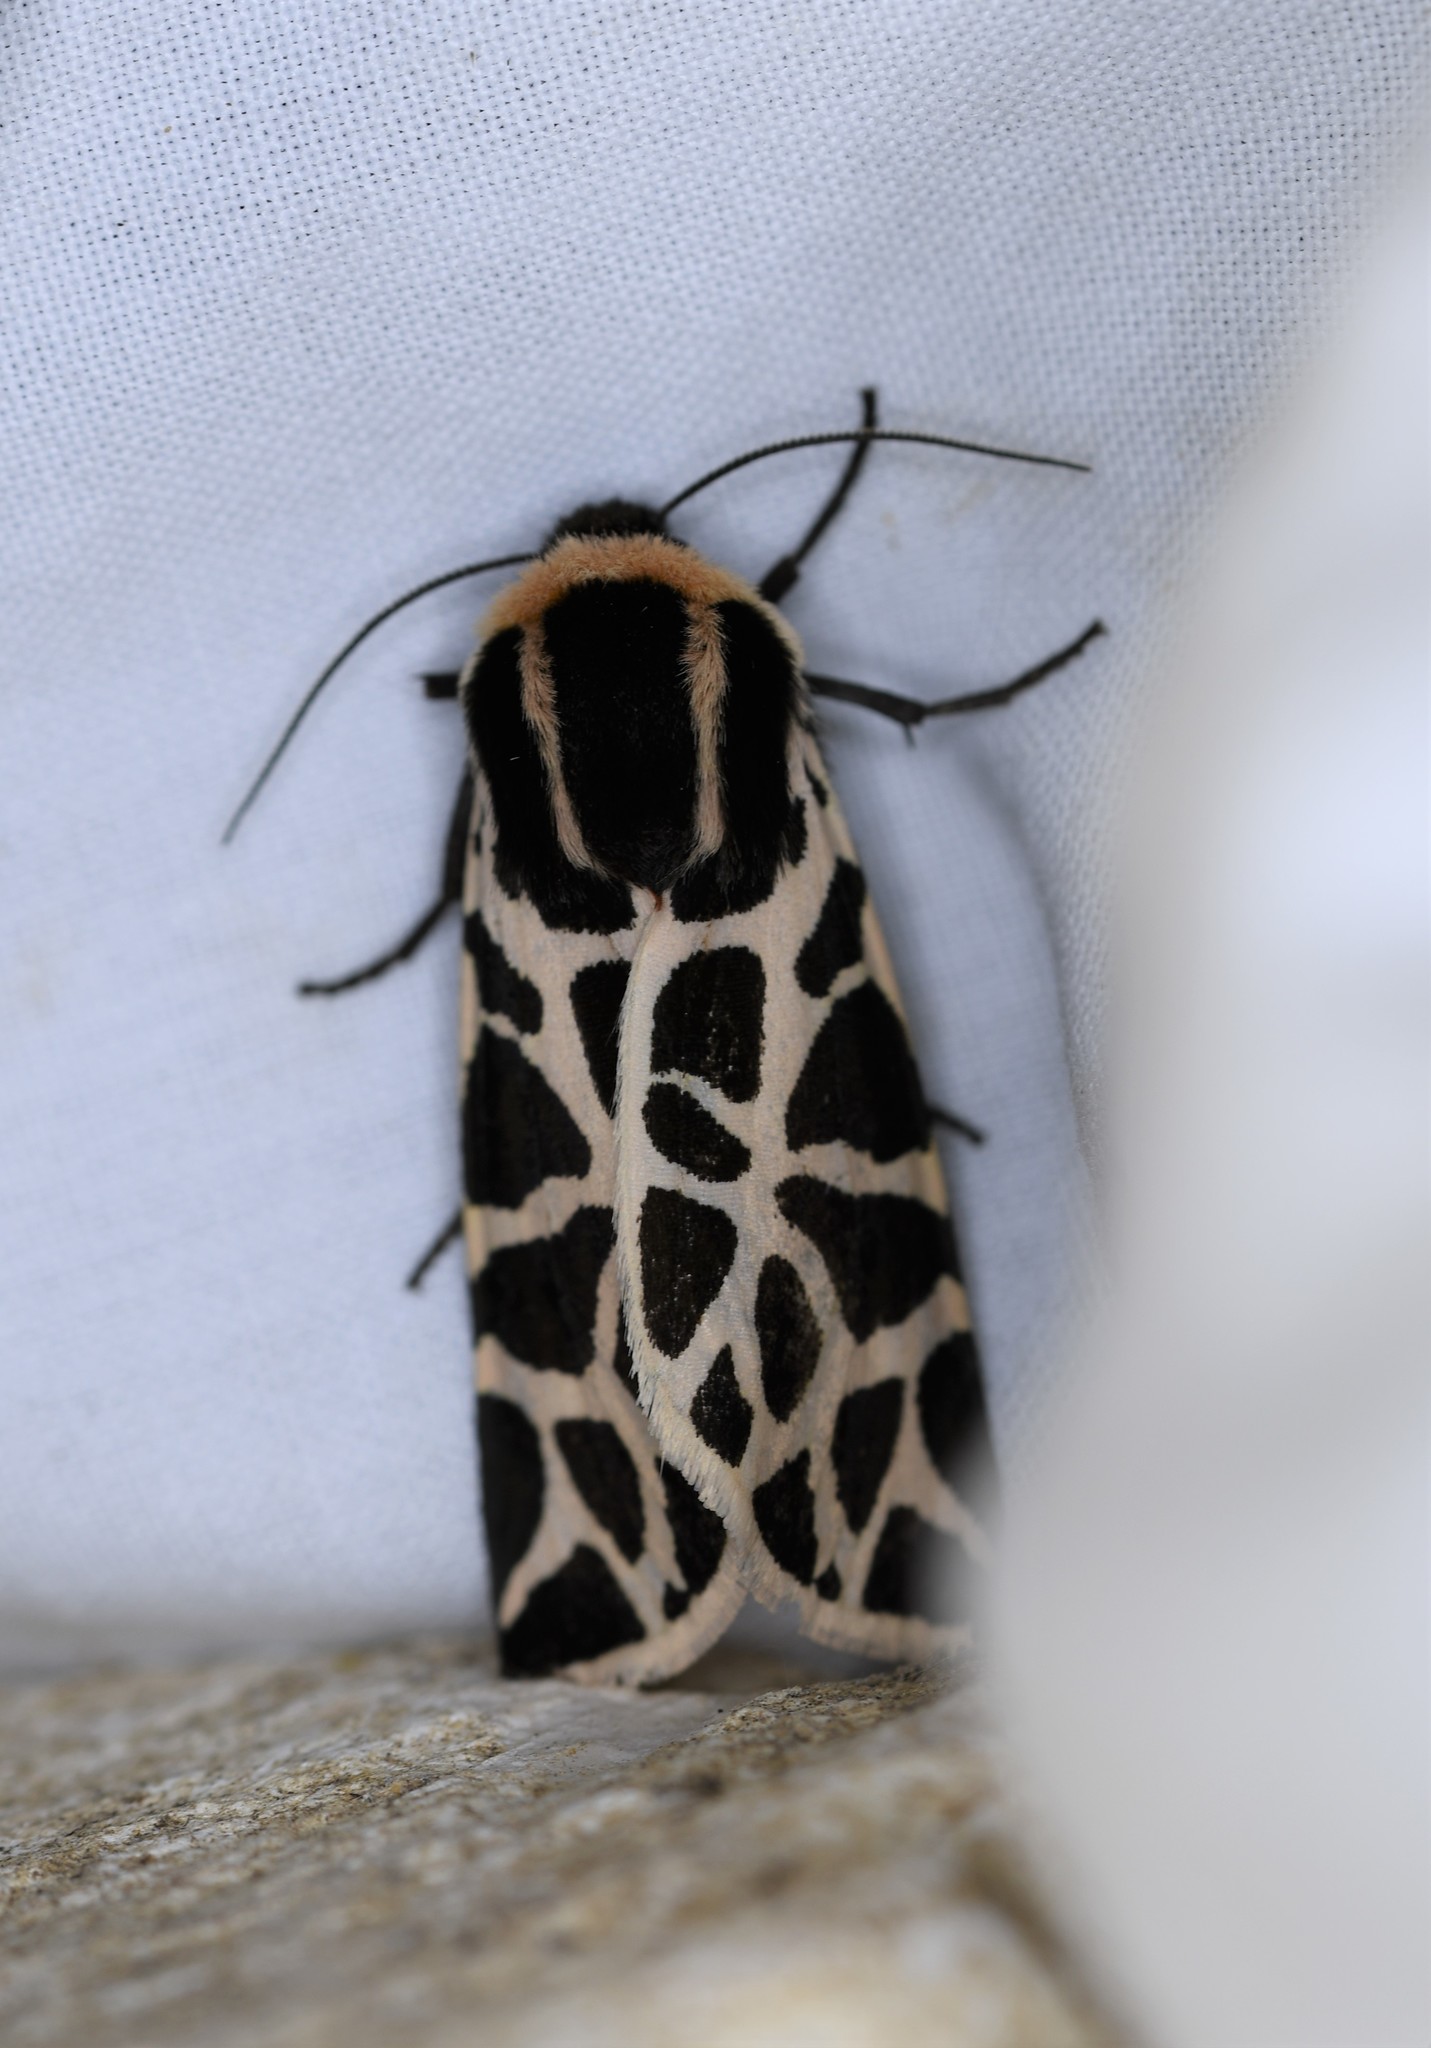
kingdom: Animalia
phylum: Arthropoda
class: Insecta
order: Lepidoptera
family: Erebidae
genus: Cymbalophora
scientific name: Cymbalophora pudica
